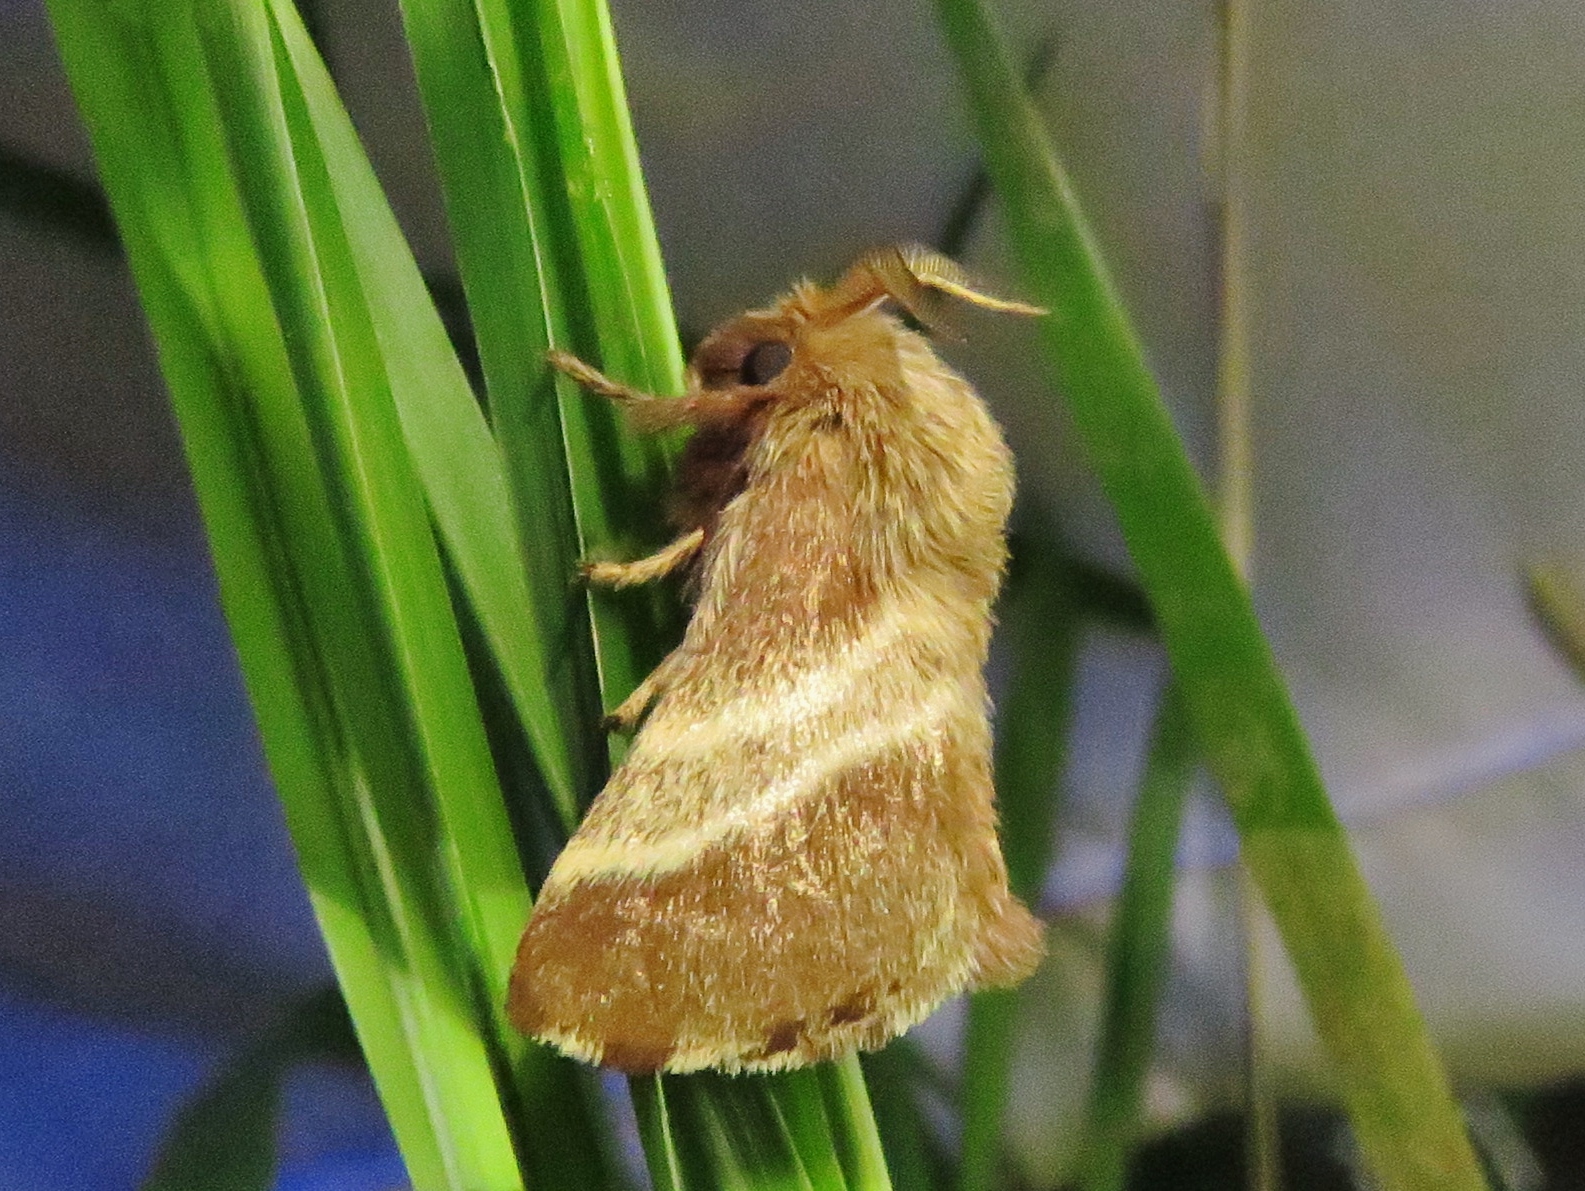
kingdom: Animalia
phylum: Arthropoda
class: Insecta
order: Lepidoptera
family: Lasiocampidae
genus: Malacosoma
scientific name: Malacosoma americana
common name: Eastern tent caterpillar moth
